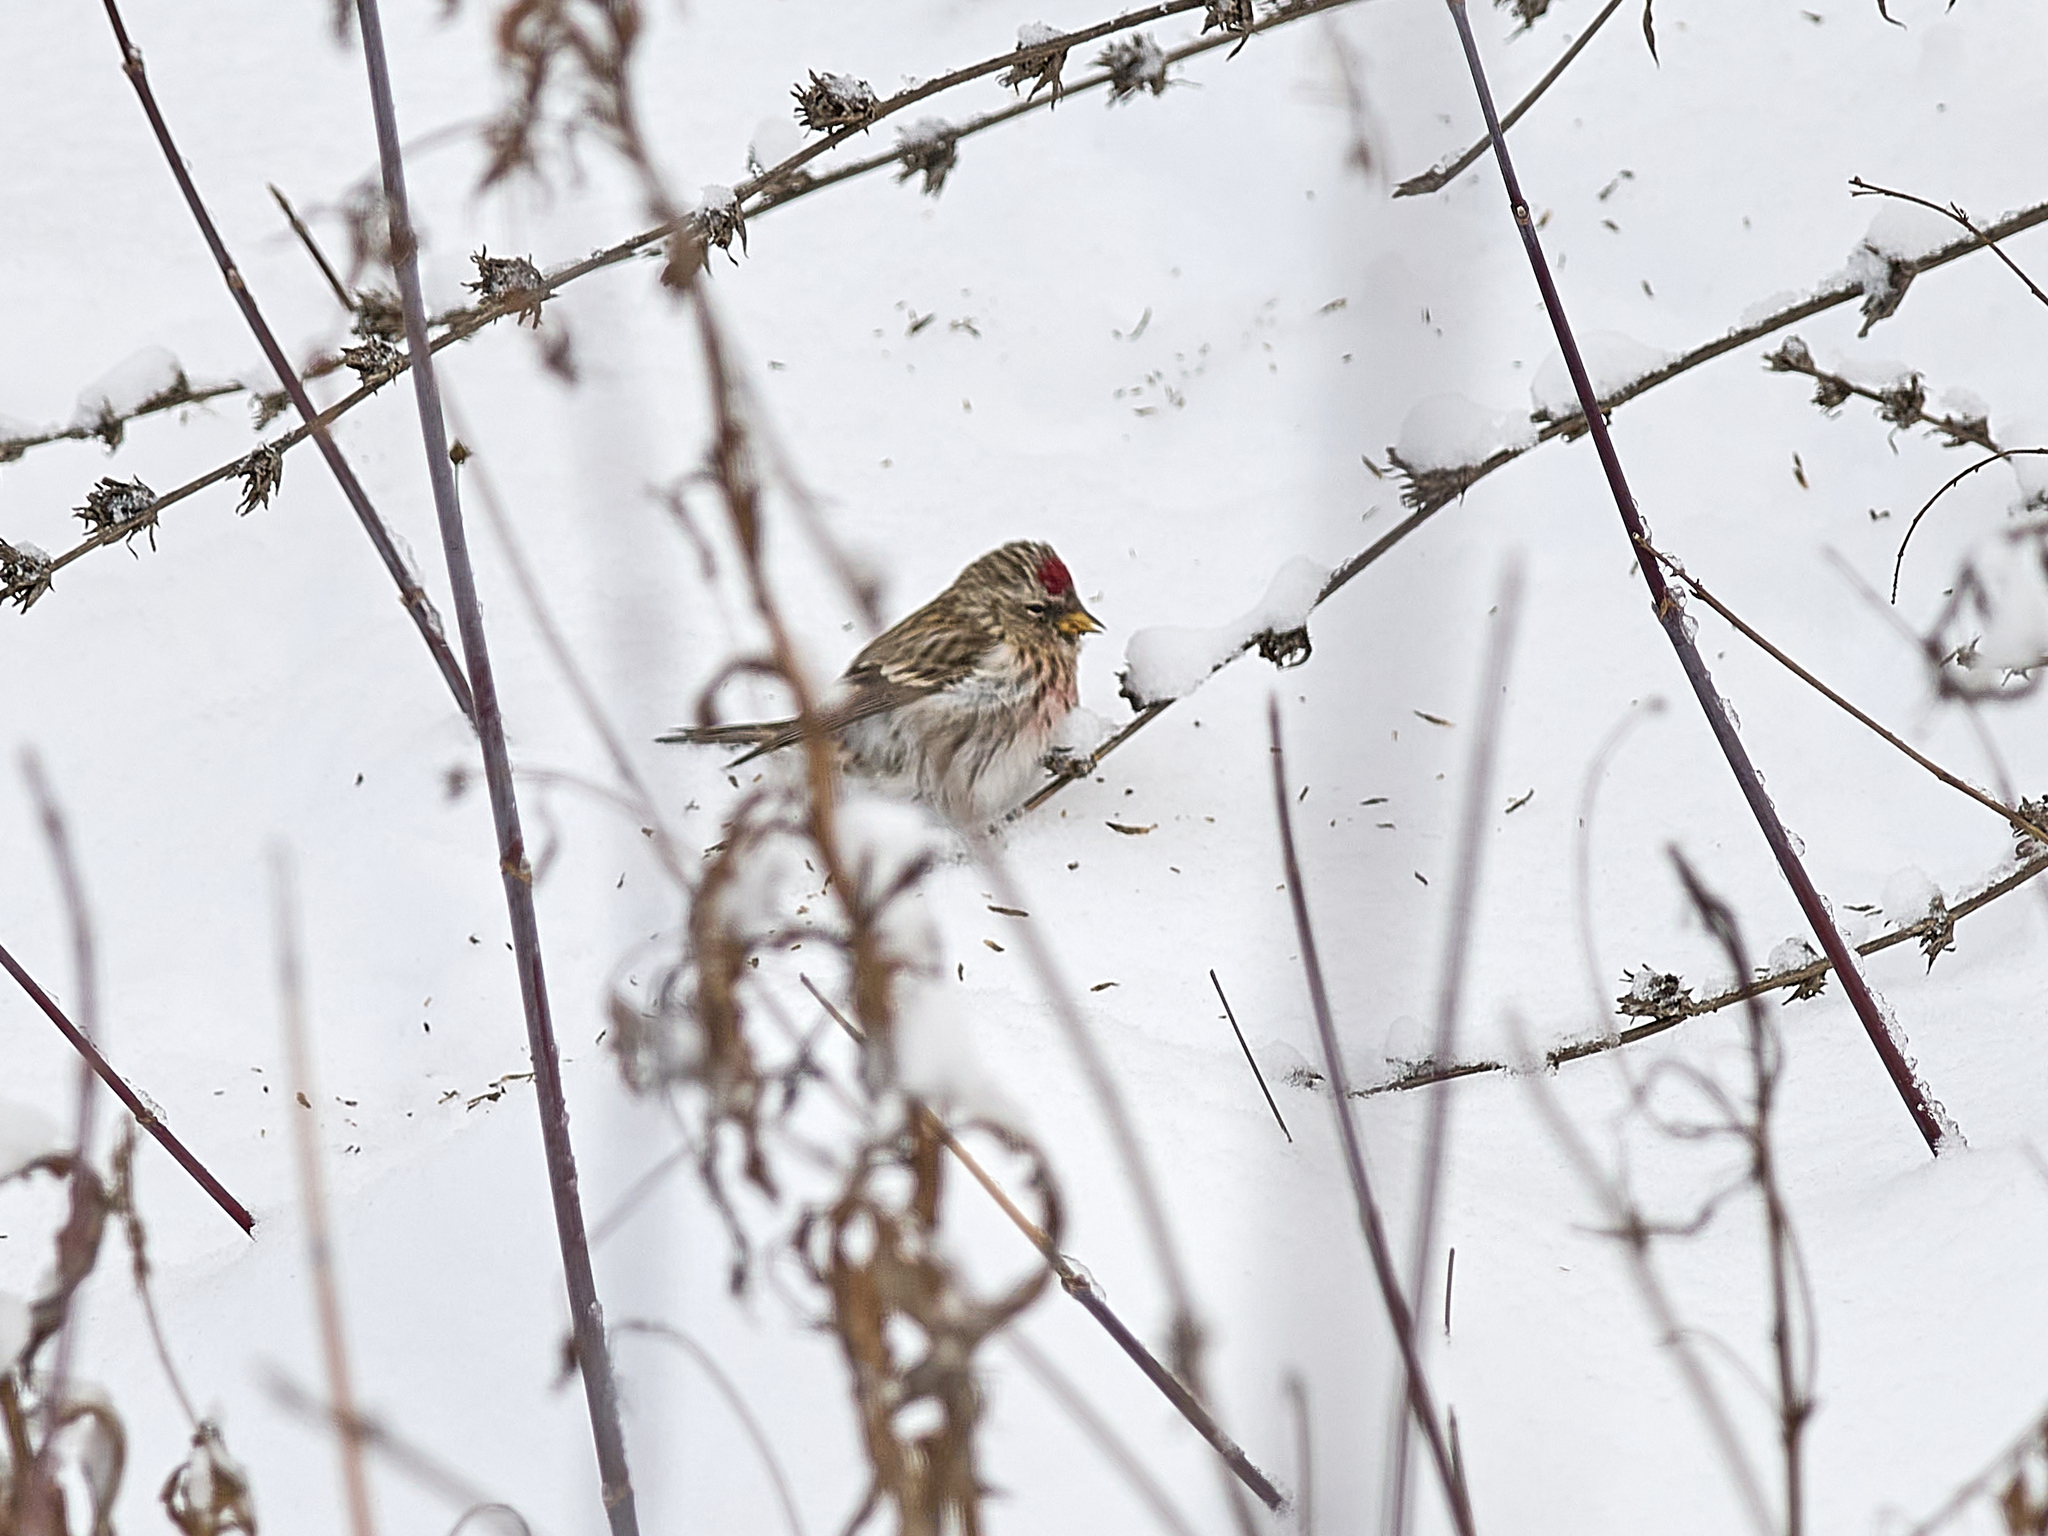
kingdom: Animalia
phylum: Chordata
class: Aves
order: Passeriformes
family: Fringillidae
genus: Acanthis
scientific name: Acanthis flammea
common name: Common redpoll
